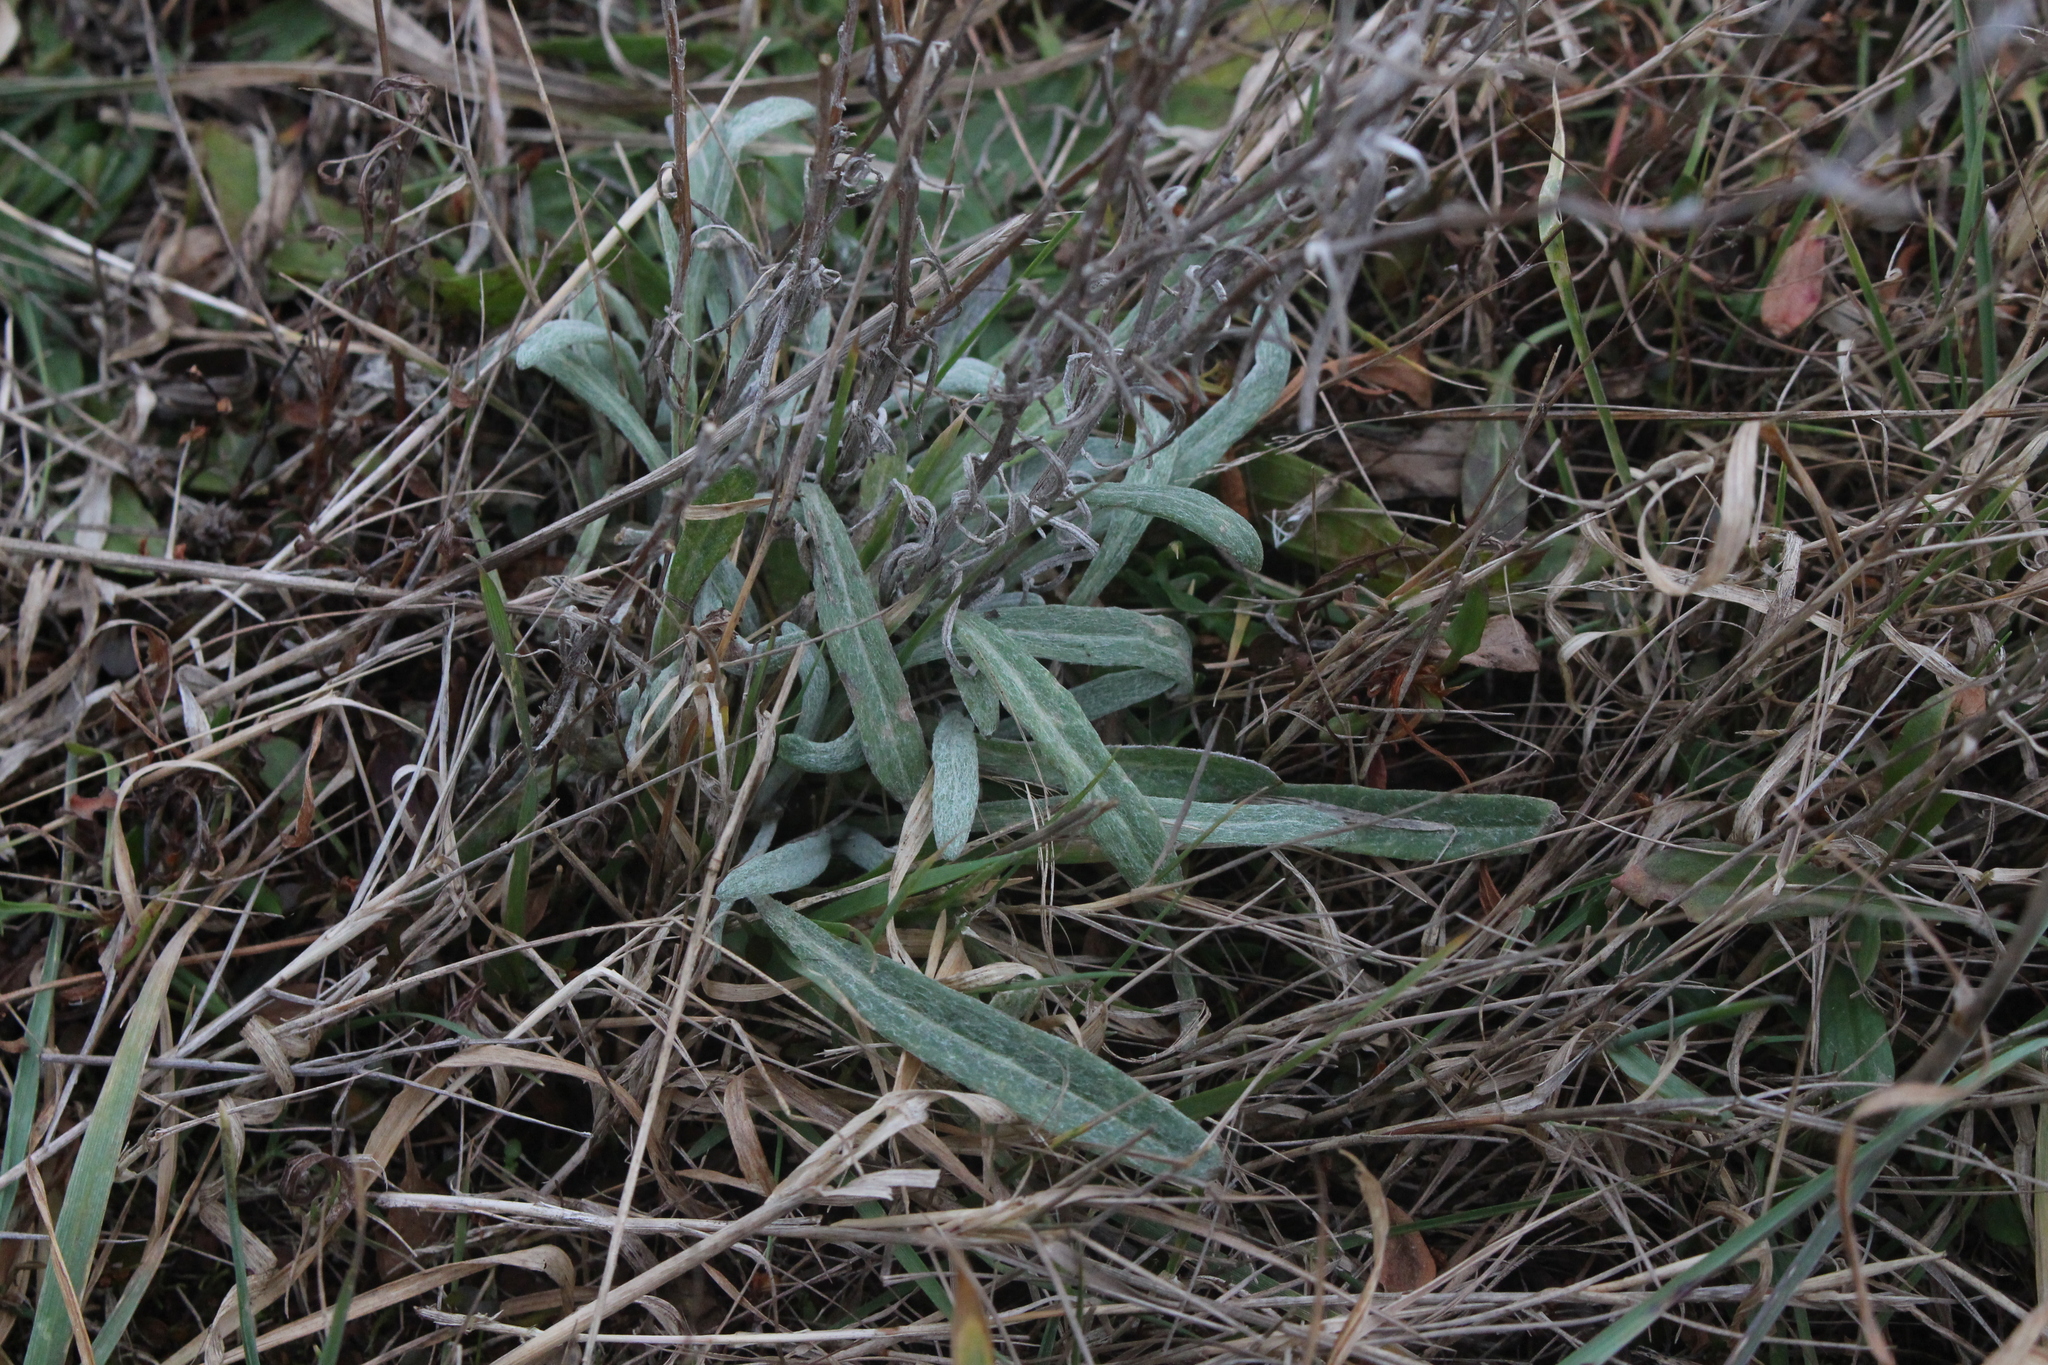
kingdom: Plantae
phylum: Tracheophyta
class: Magnoliopsida
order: Asterales
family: Asteraceae
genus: Senecio
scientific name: Senecio quadridentatus
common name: Cotton fireweed
